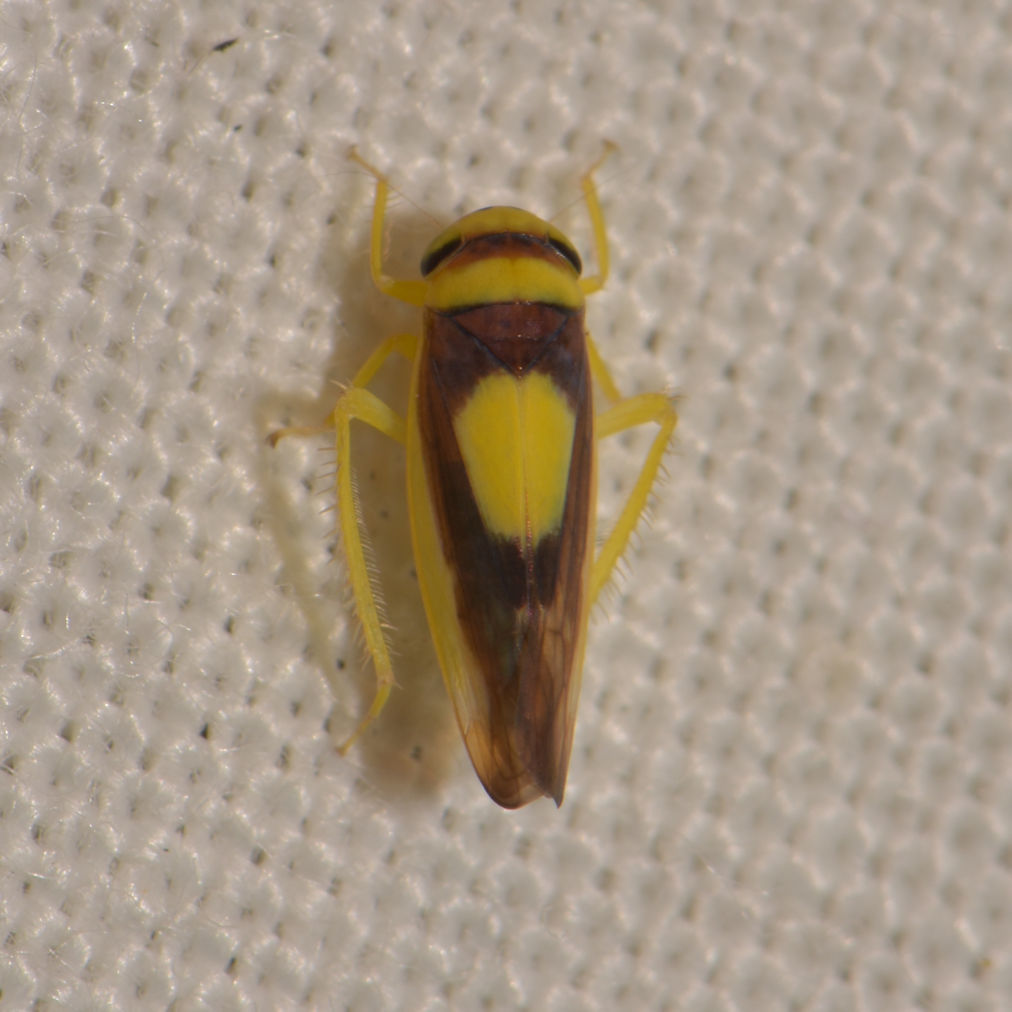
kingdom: Animalia
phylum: Arthropoda
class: Insecta
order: Hemiptera
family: Cicadellidae
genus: Colladonus
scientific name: Colladonus clitellarius
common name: The saddleback leafhopper
